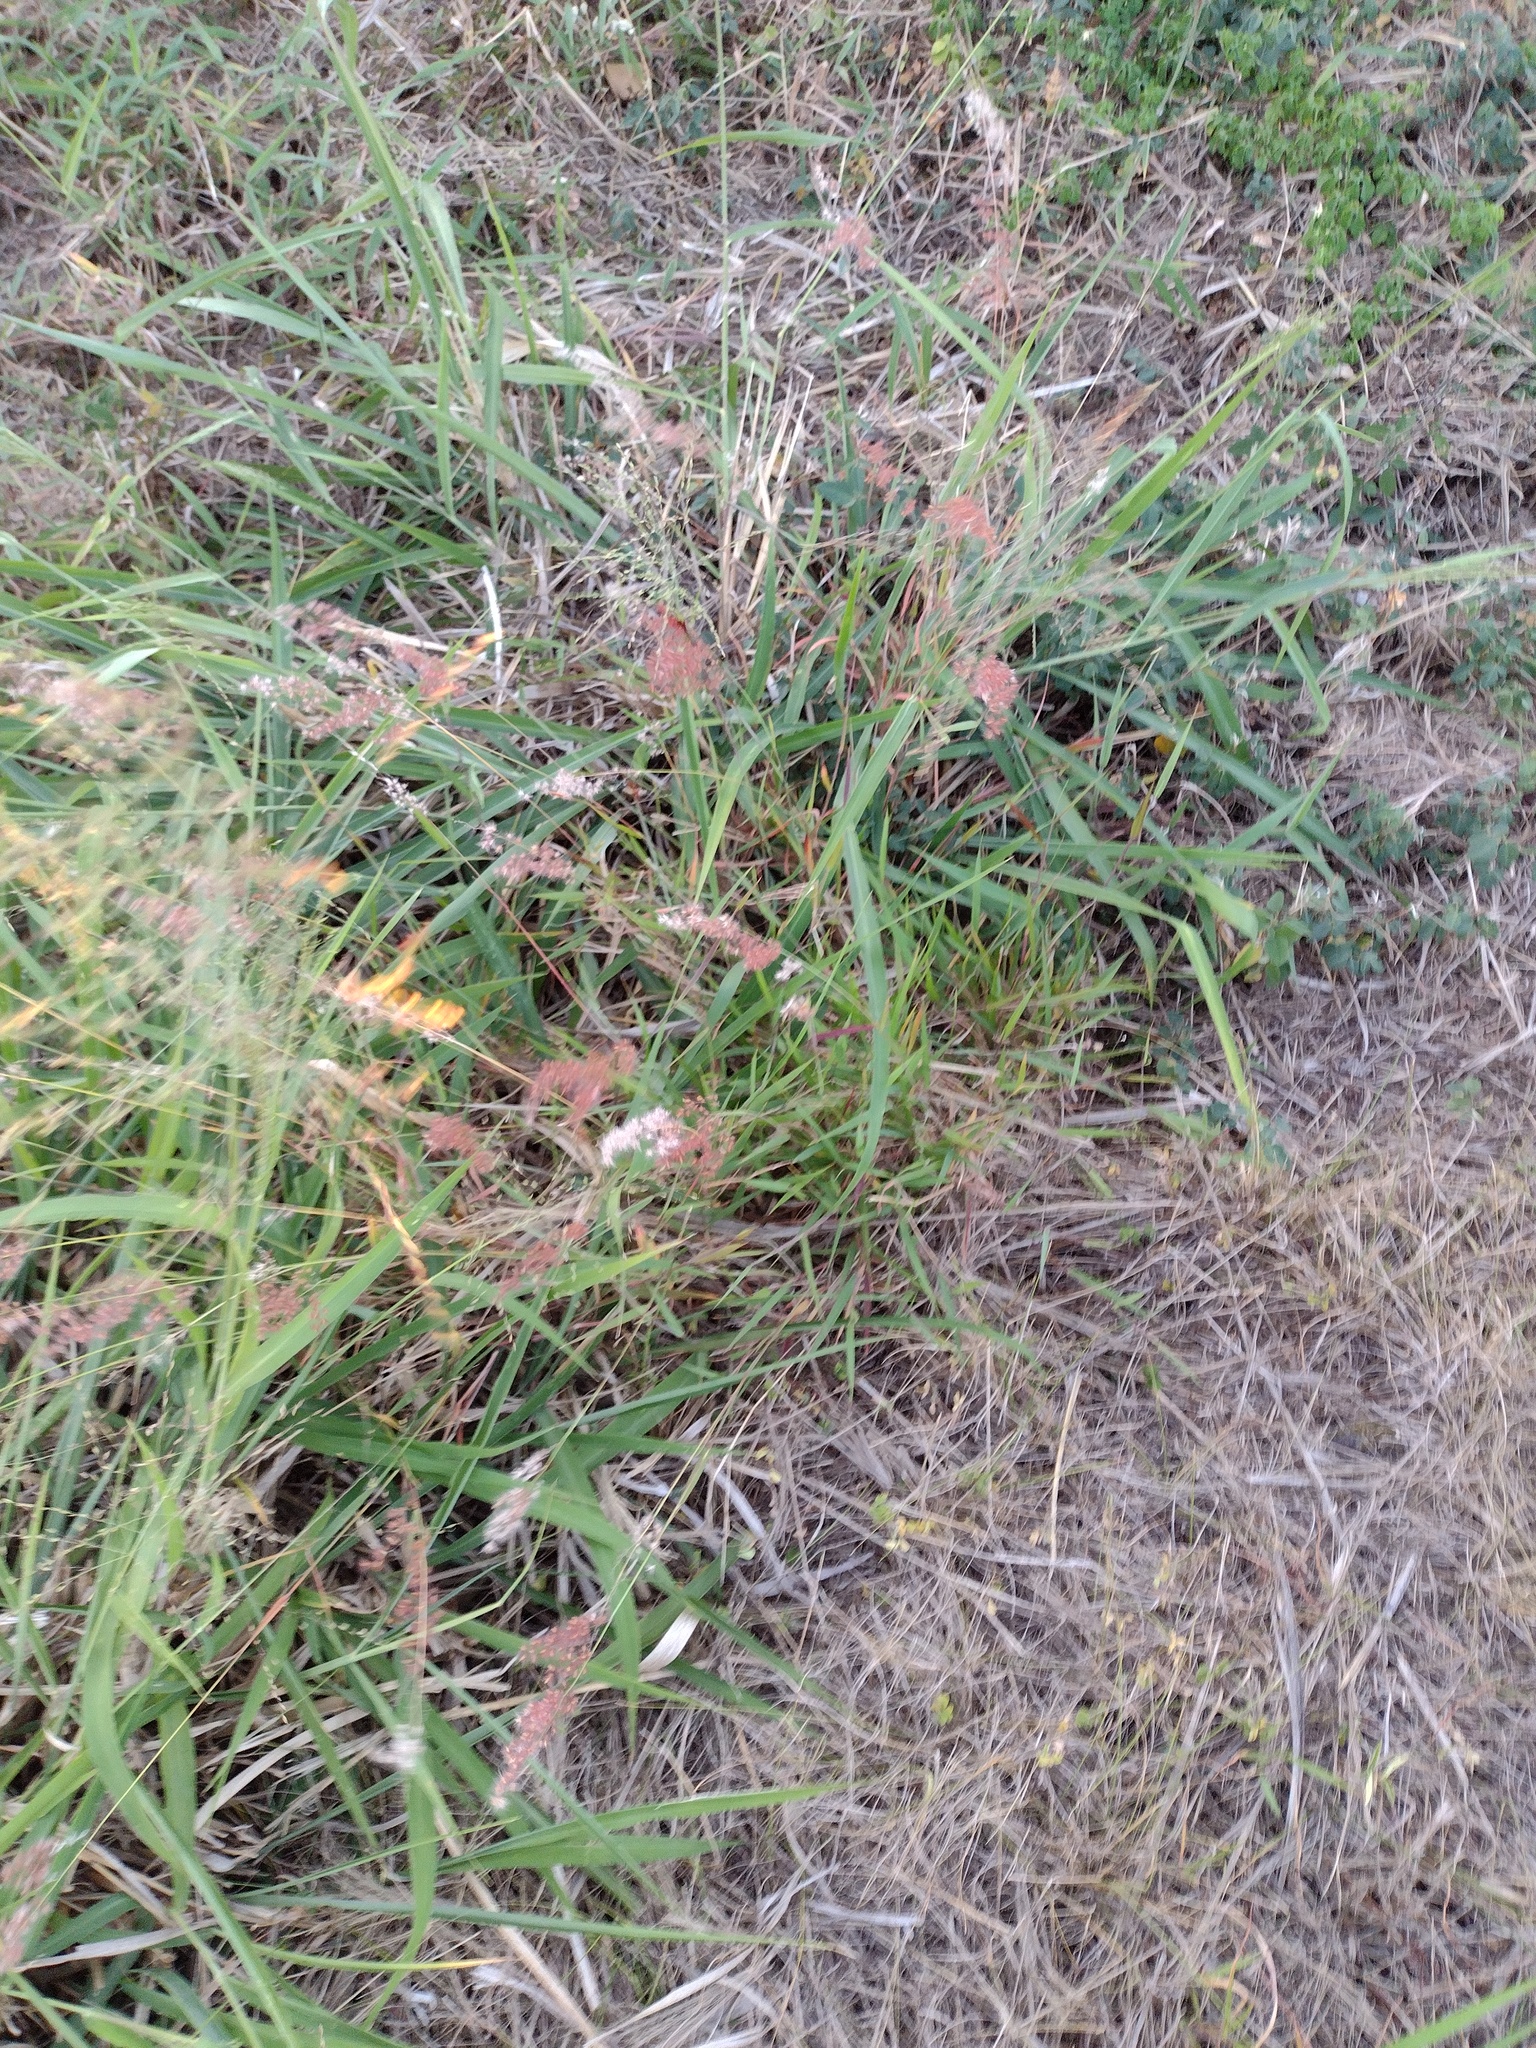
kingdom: Plantae
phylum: Tracheophyta
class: Liliopsida
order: Poales
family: Poaceae
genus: Melinis
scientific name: Melinis repens
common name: Rose natal grass
